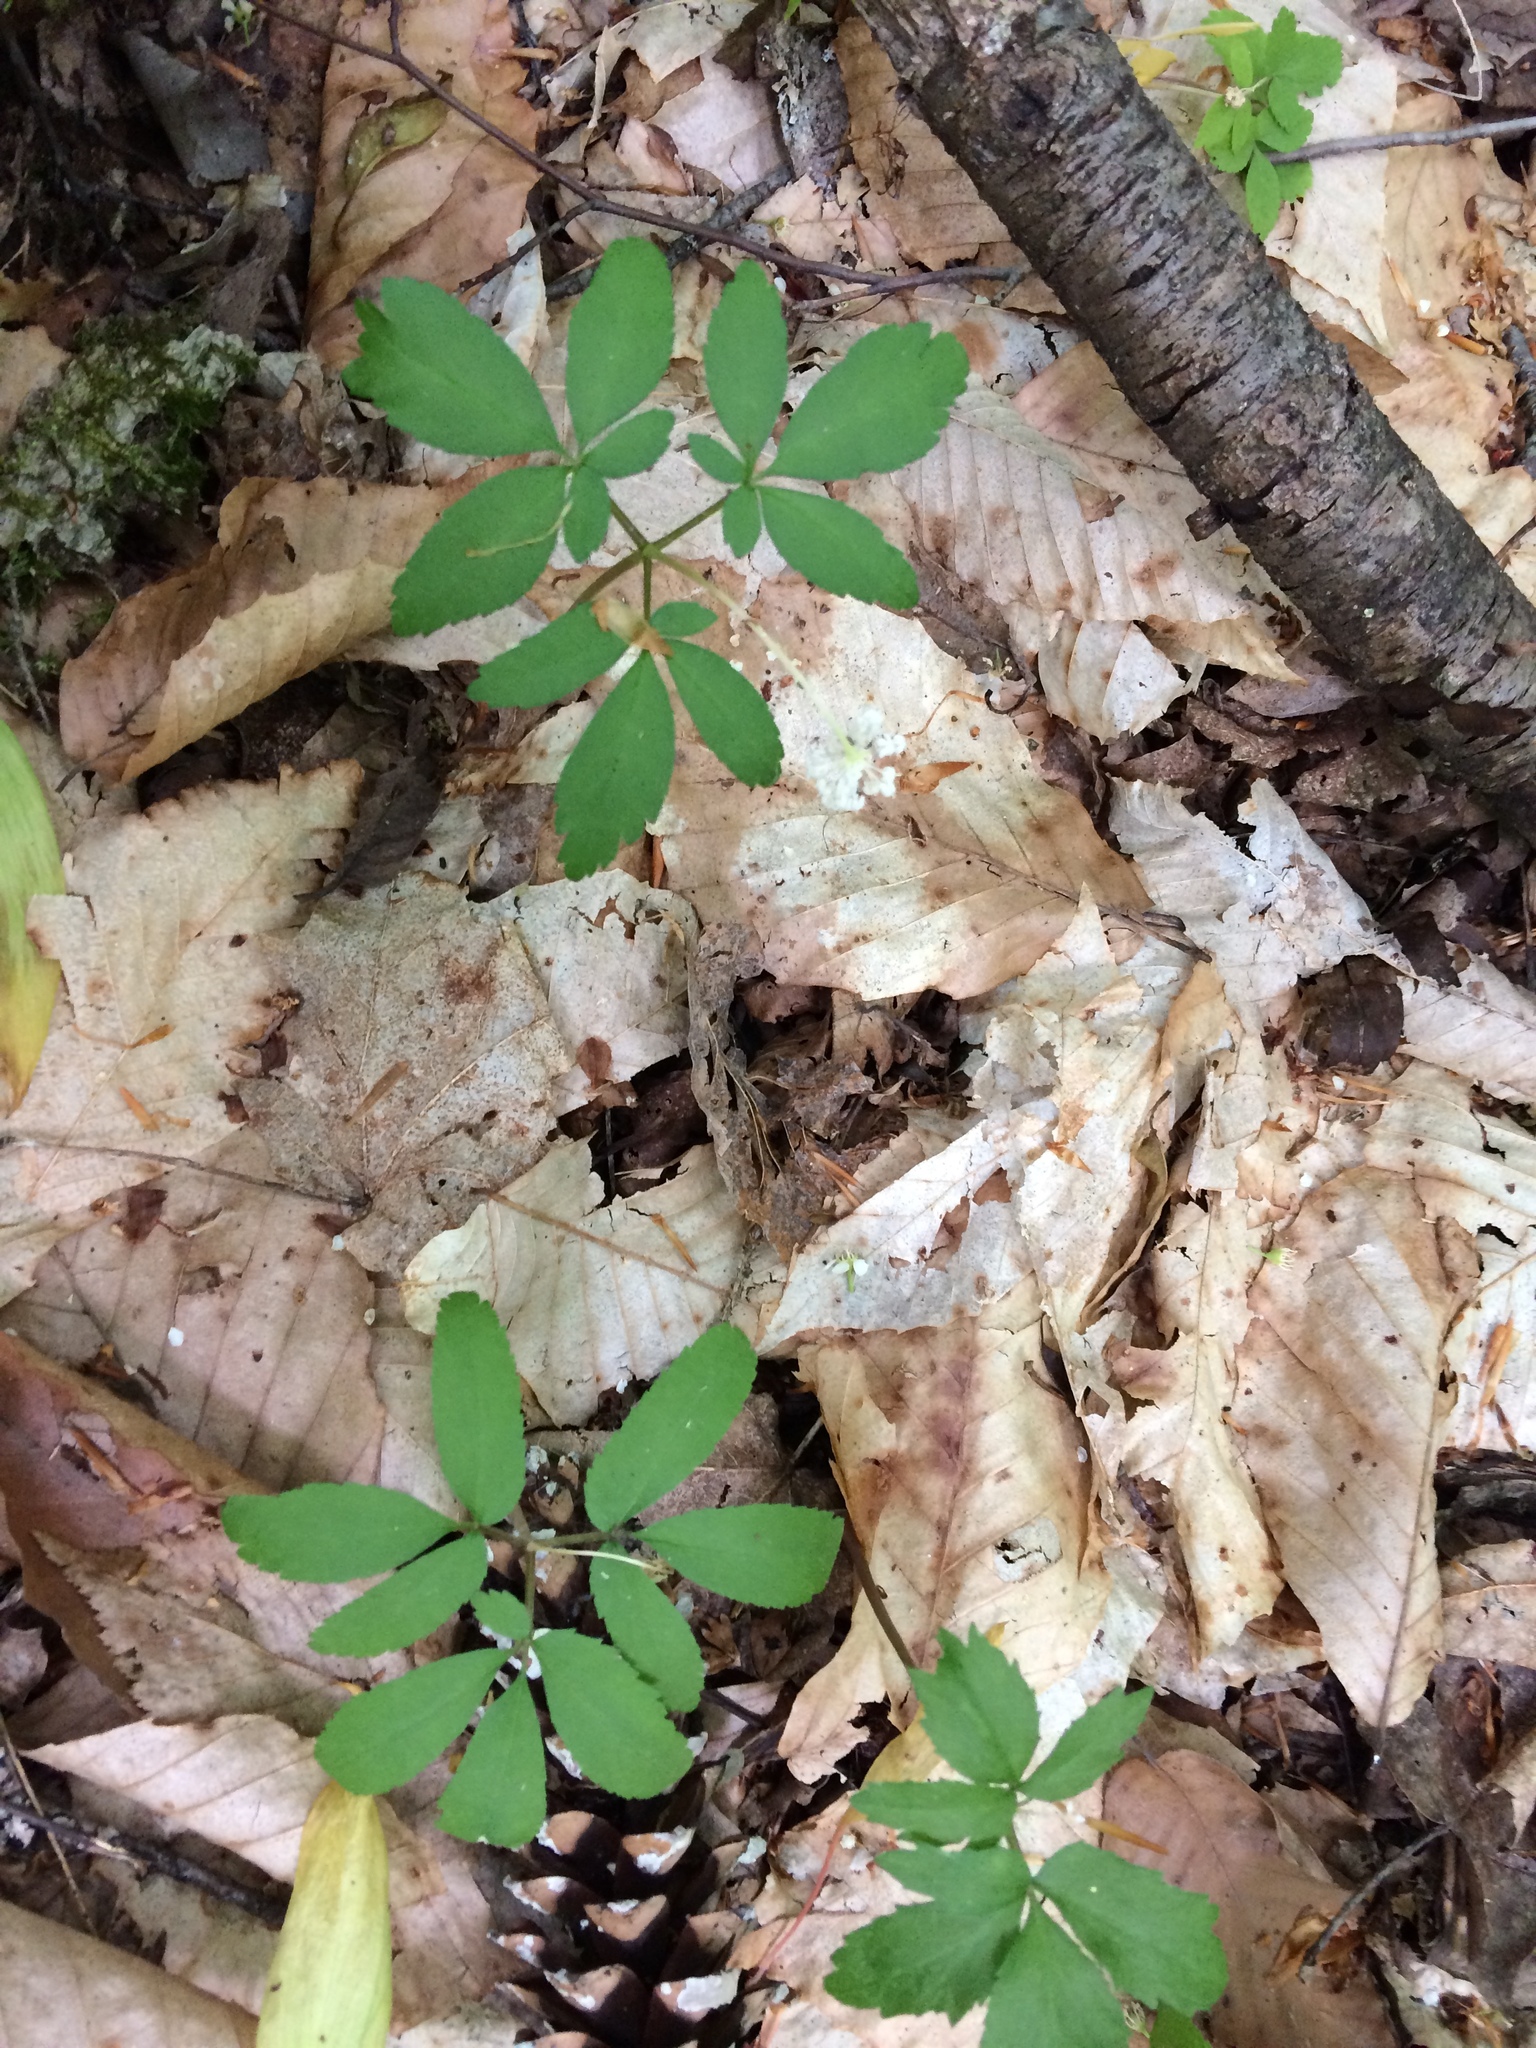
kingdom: Plantae
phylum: Tracheophyta
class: Magnoliopsida
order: Apiales
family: Araliaceae
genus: Panax
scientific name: Panax trifolius
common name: Dwarf ginseng
